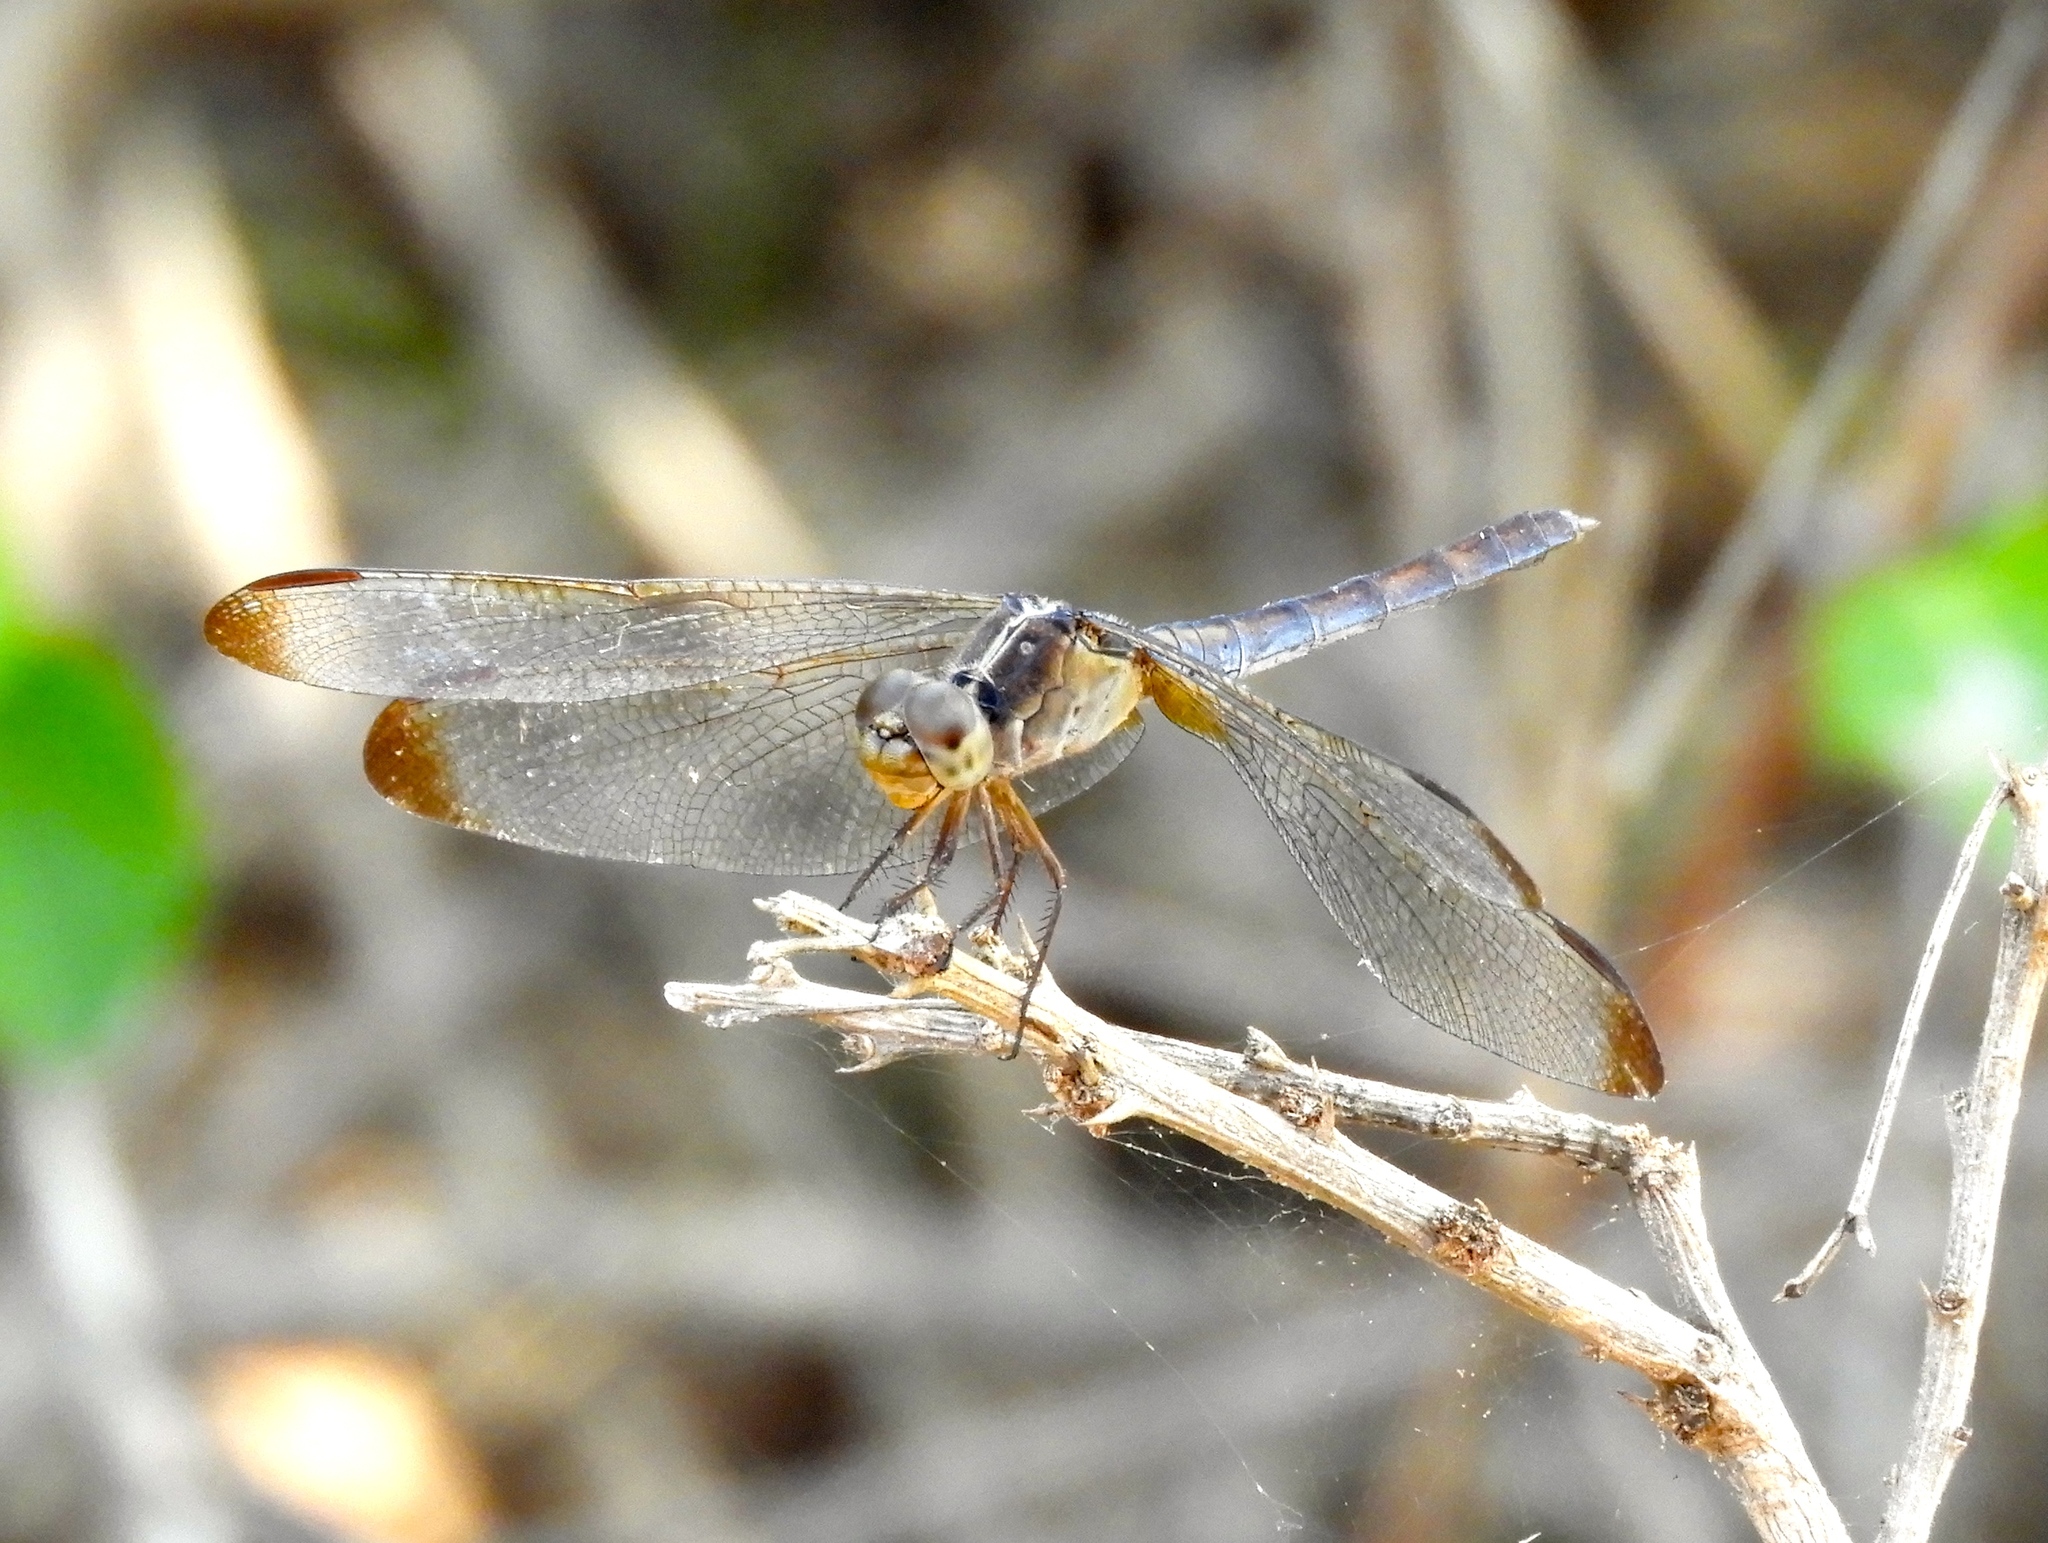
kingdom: Animalia
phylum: Arthropoda
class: Insecta
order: Odonata
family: Libellulidae
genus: Erythrodiplax
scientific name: Erythrodiplax funerea
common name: Black-winged dragonlet
